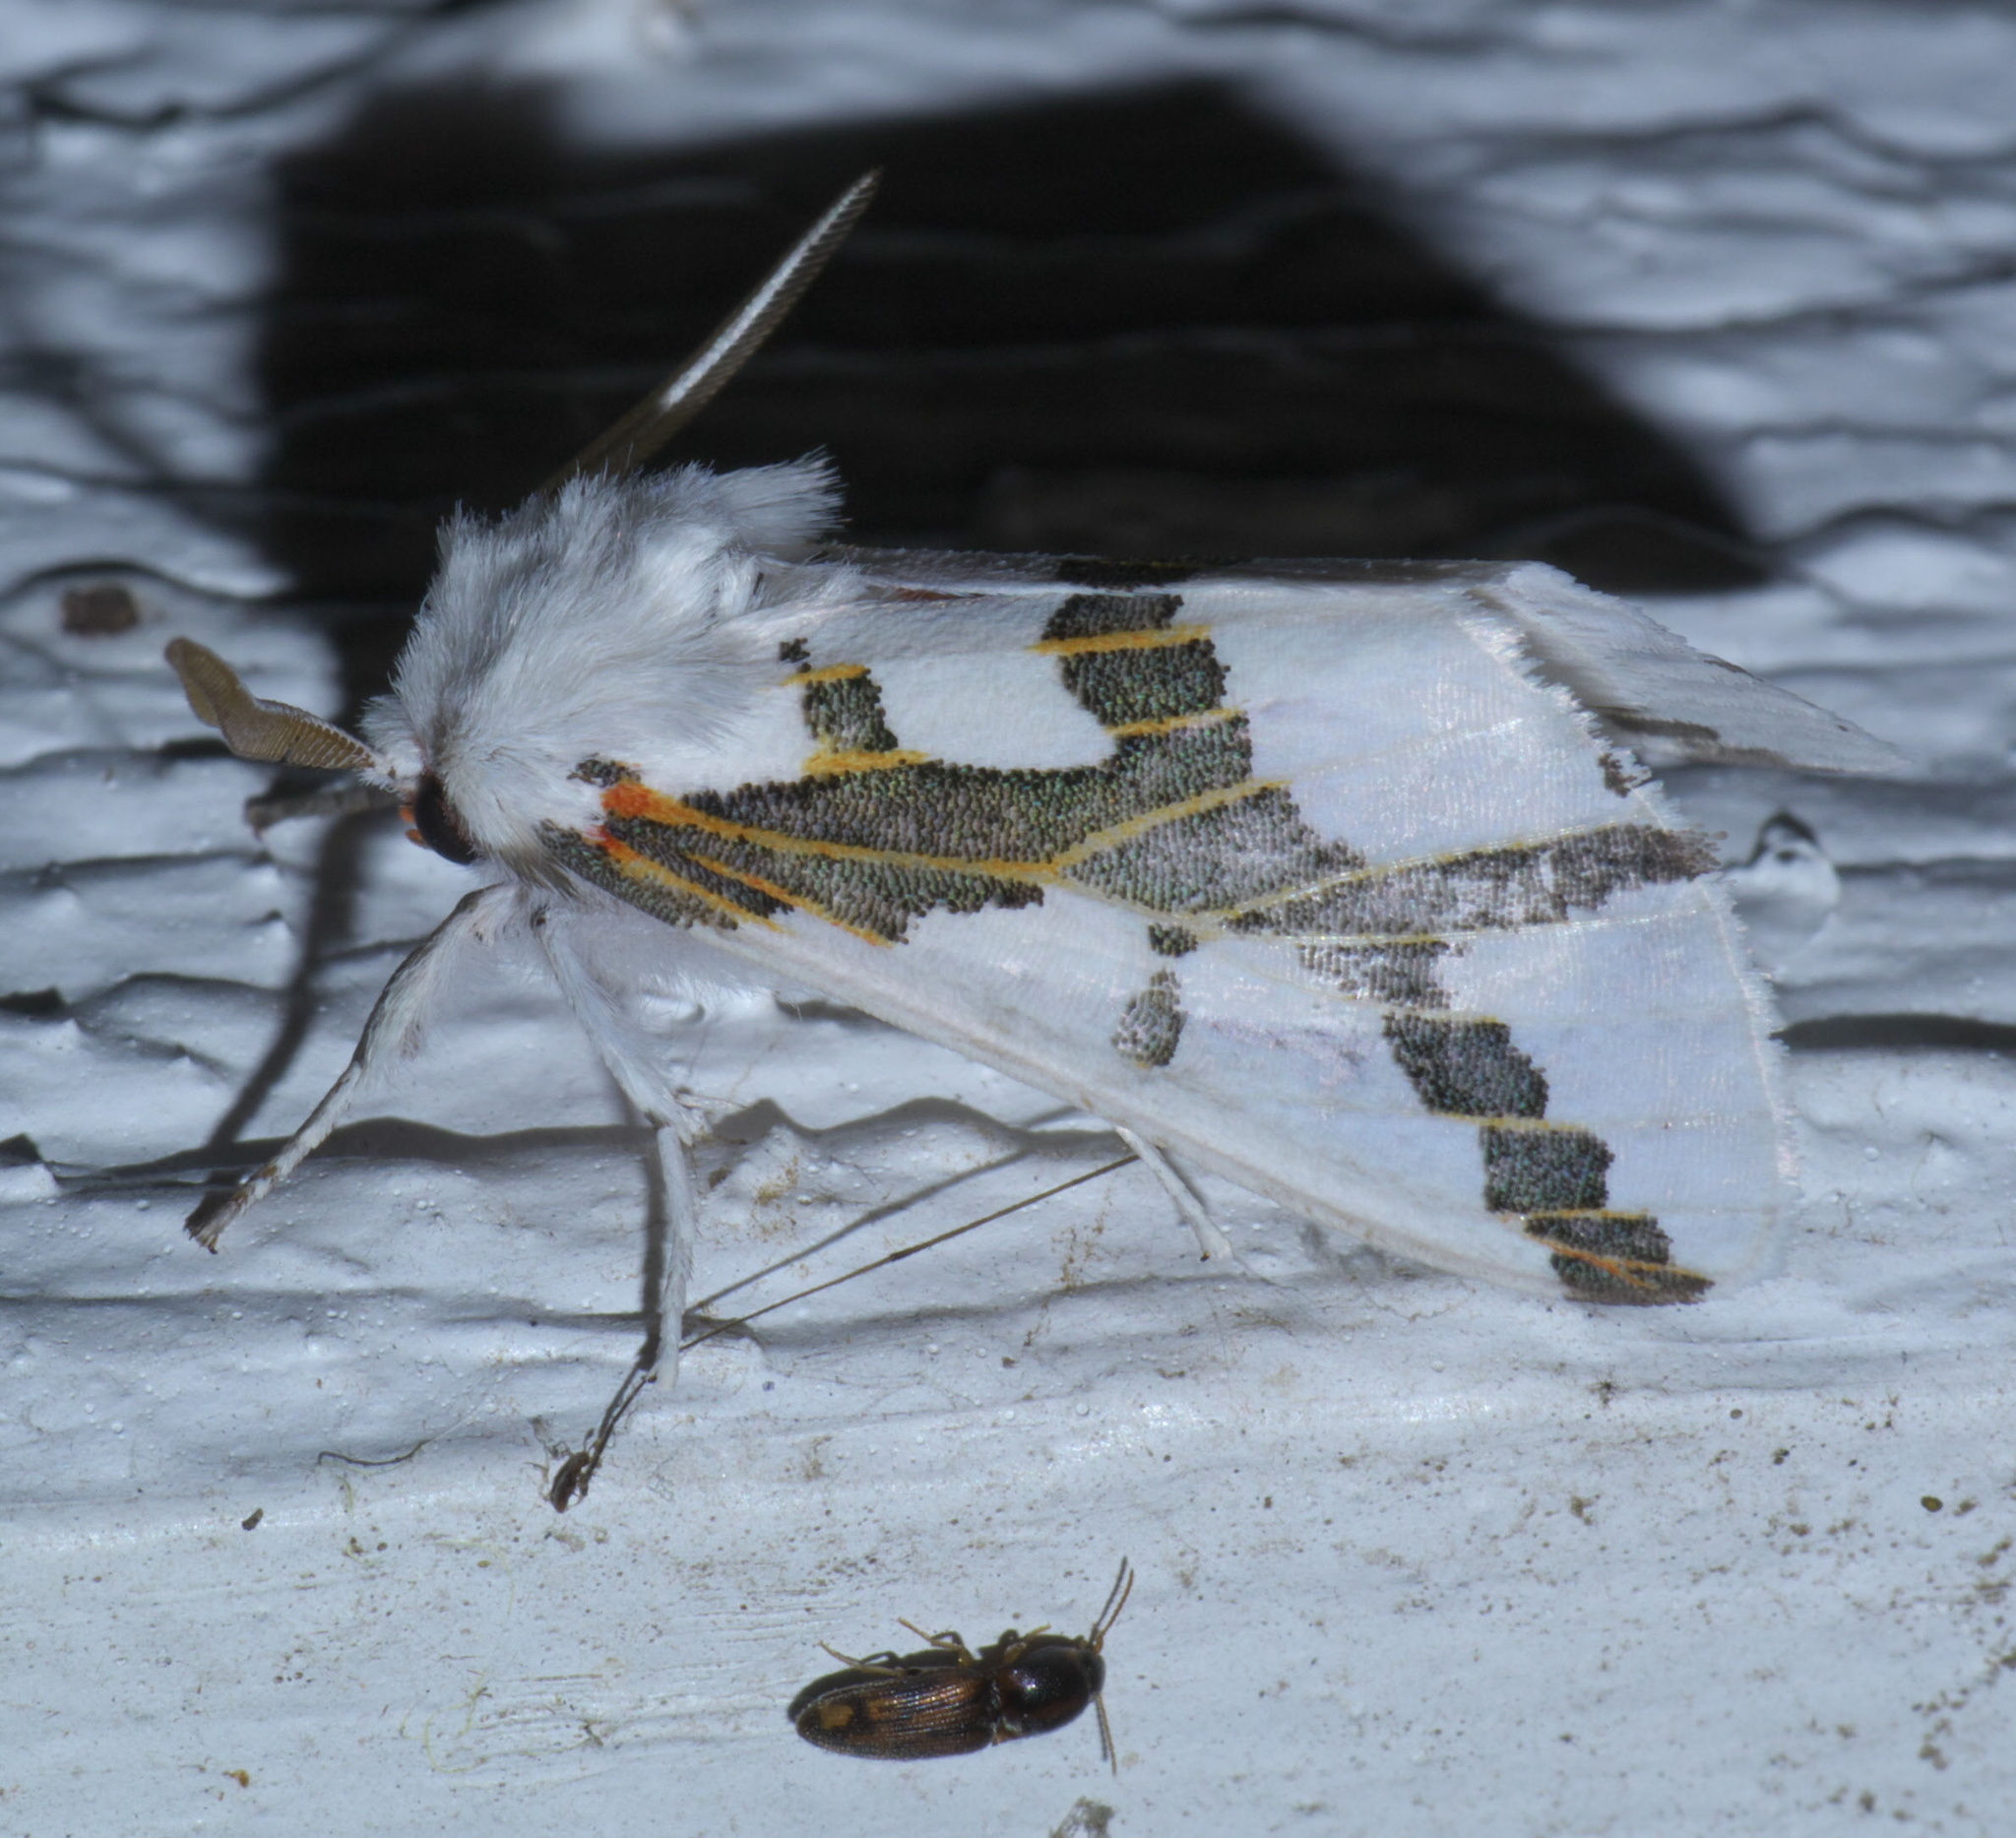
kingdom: Animalia
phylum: Arthropoda
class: Insecta
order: Lepidoptera
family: Erebidae
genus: Euerythra
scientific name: Euerythra phasma
